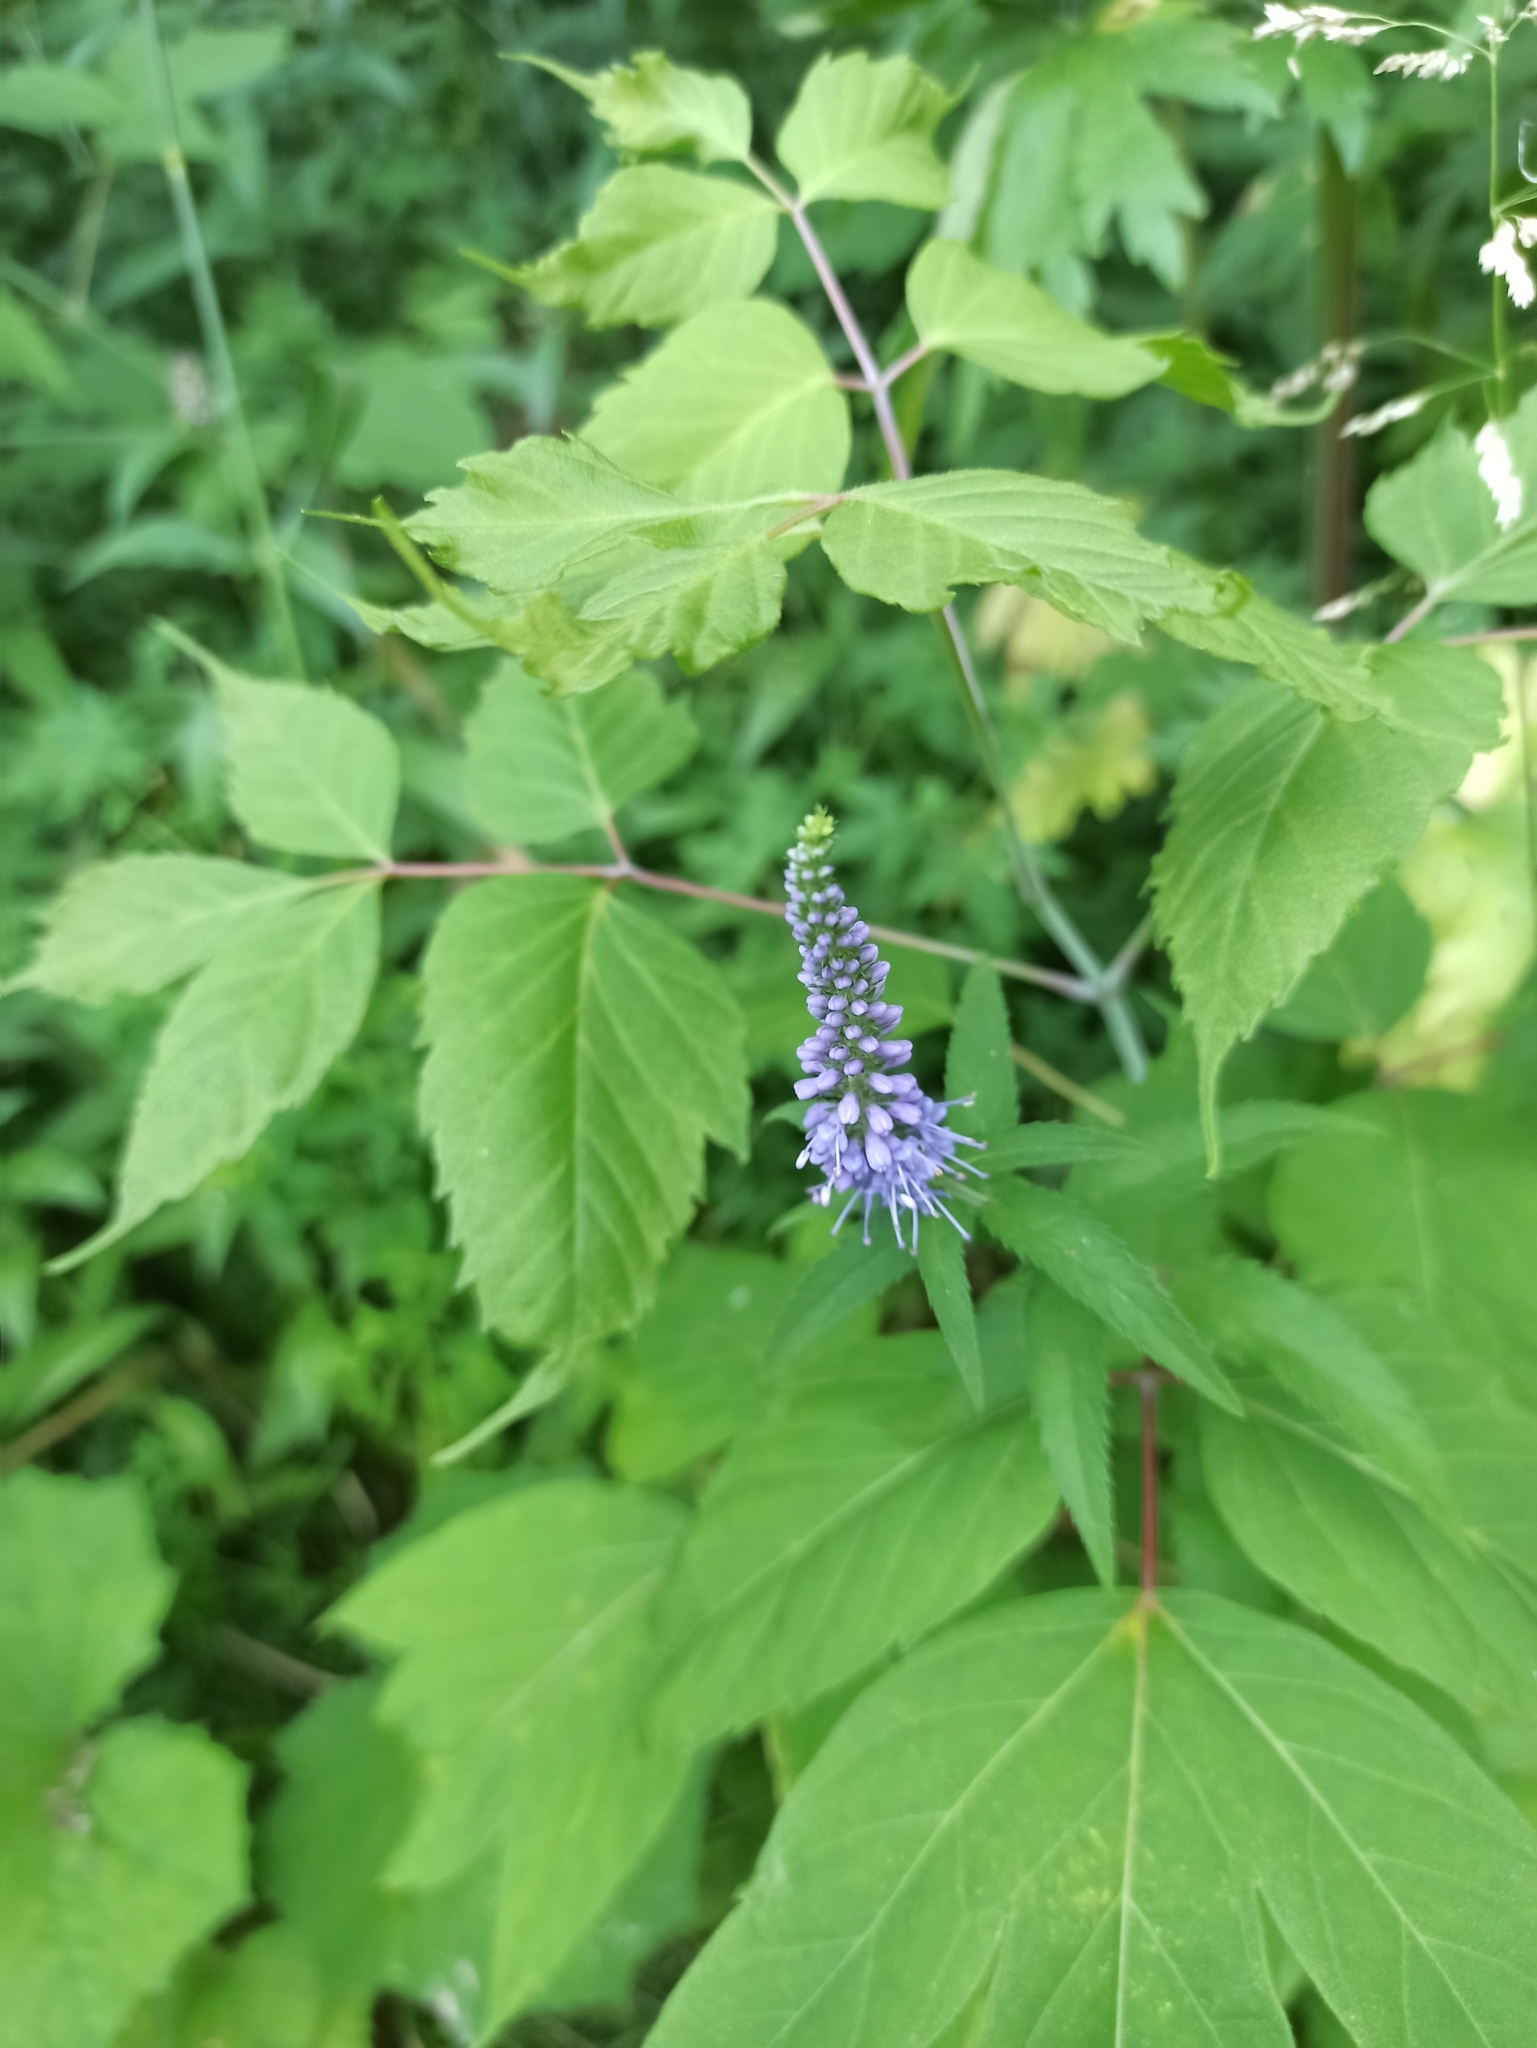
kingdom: Plantae
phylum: Tracheophyta
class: Magnoliopsida
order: Lamiales
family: Plantaginaceae
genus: Veronica
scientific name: Veronica longifolia
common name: Garden speedwell
